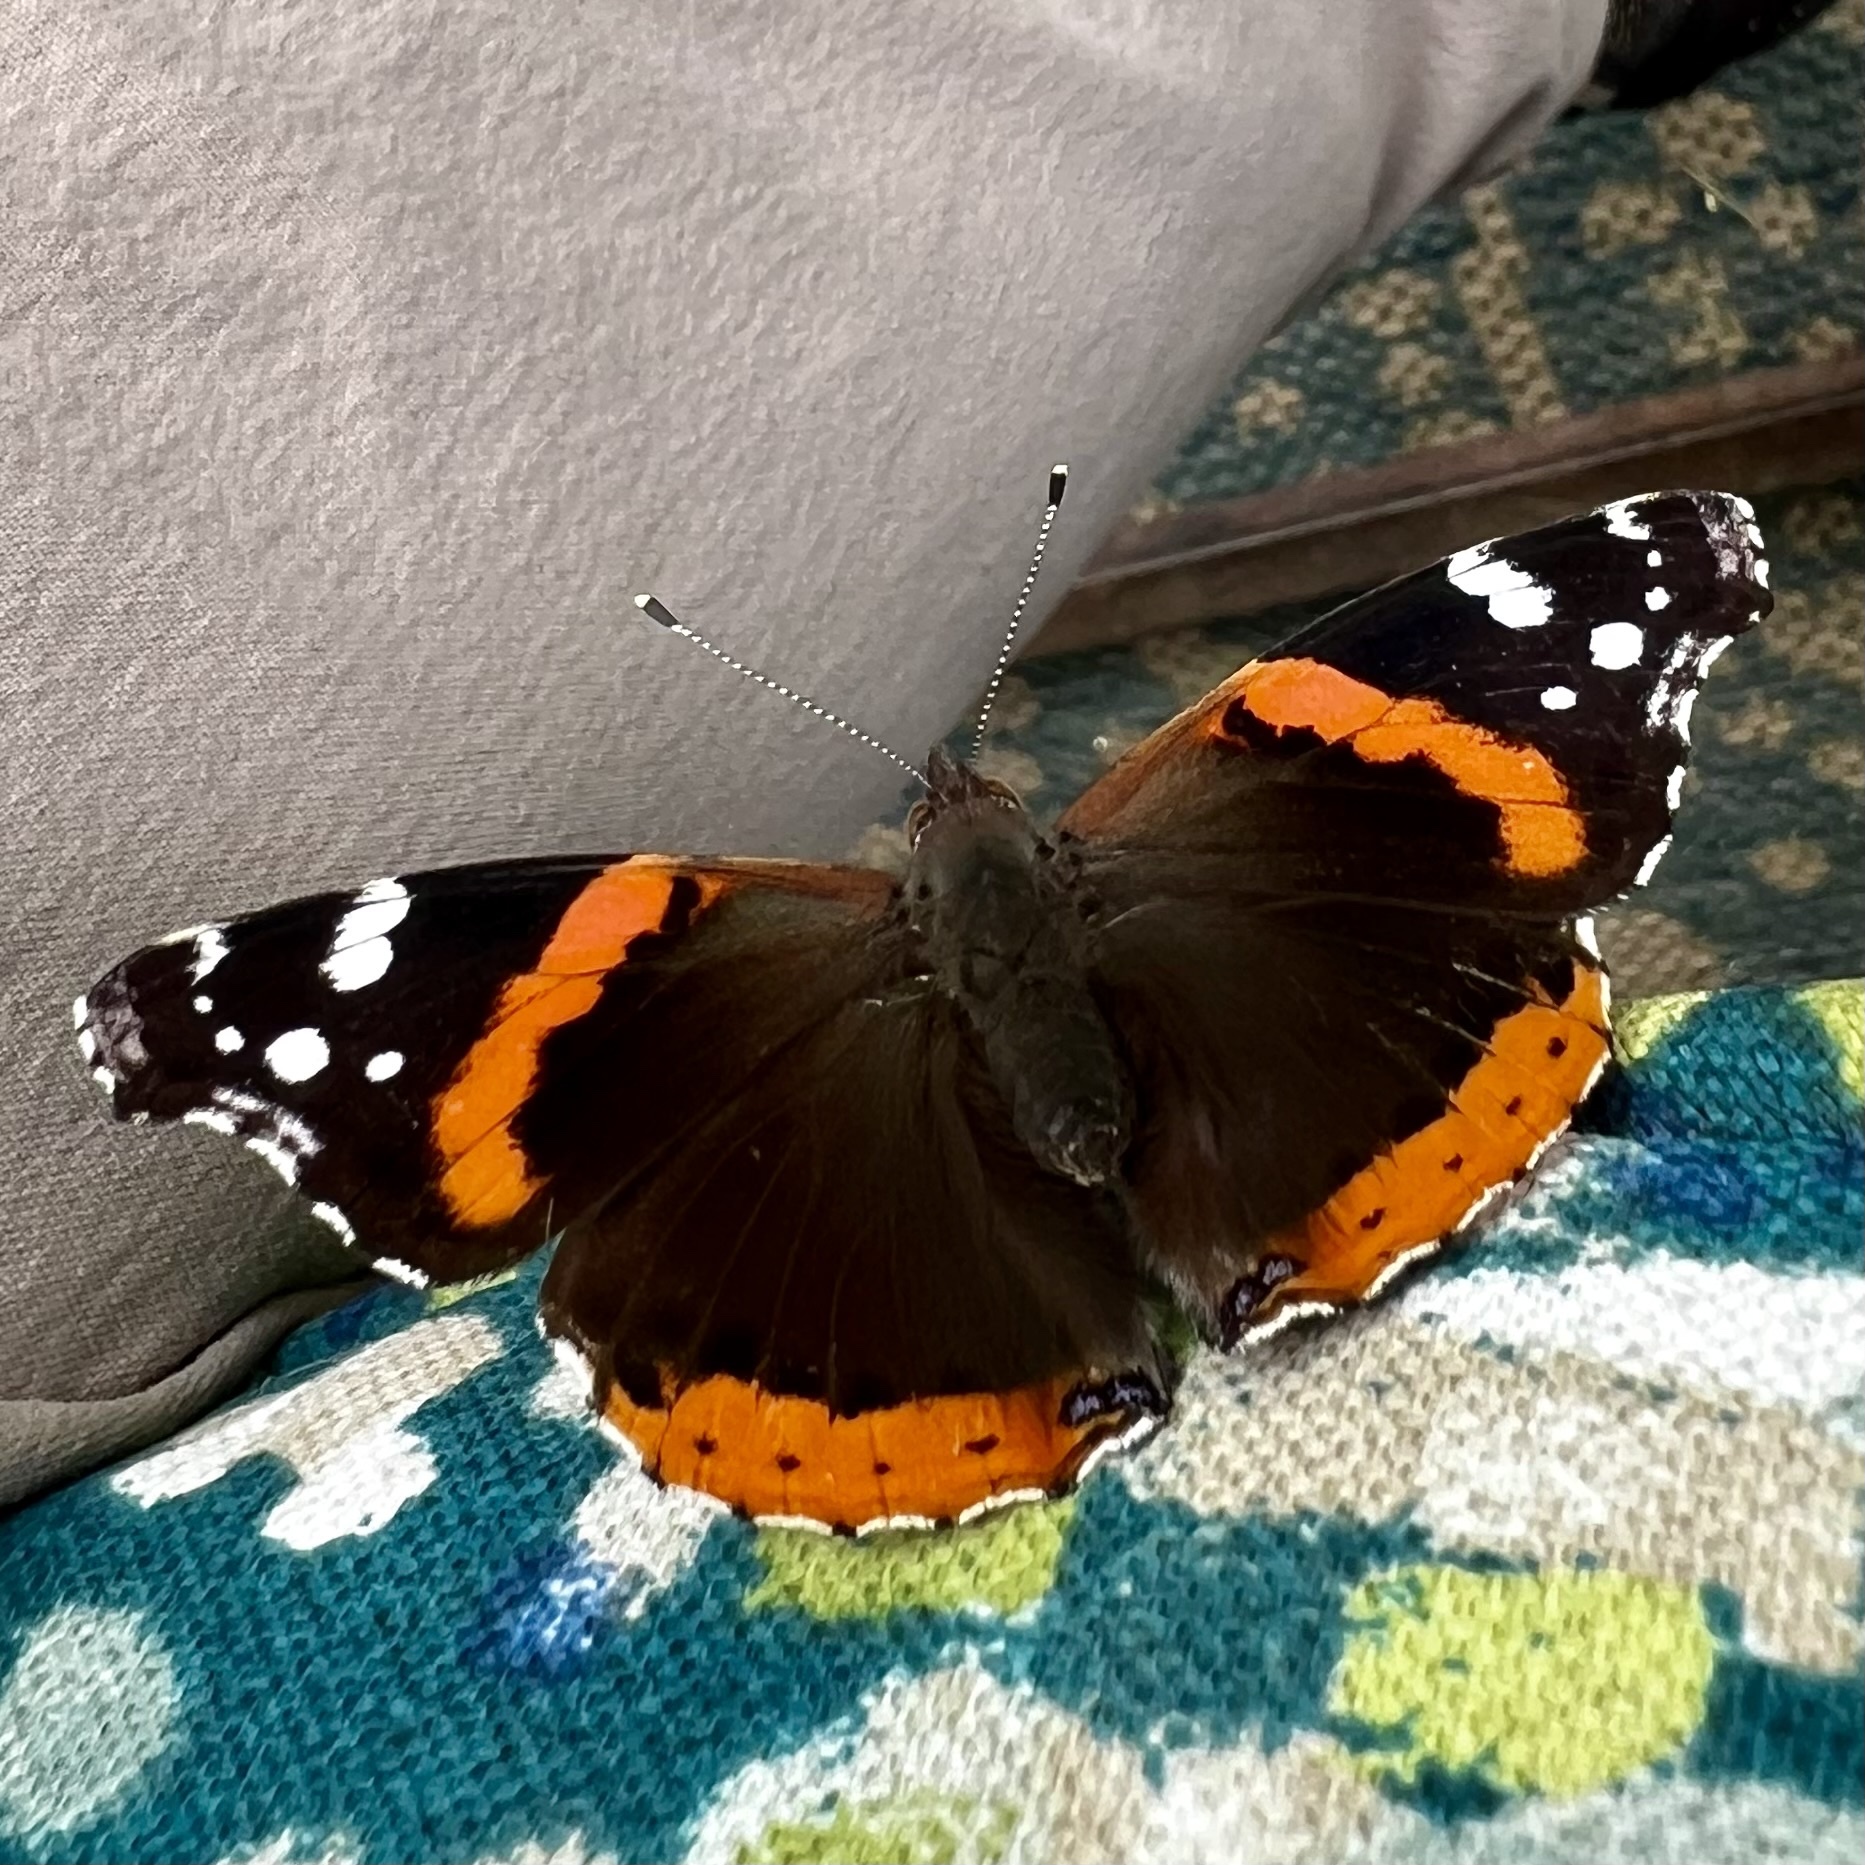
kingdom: Animalia
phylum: Arthropoda
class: Insecta
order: Lepidoptera
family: Nymphalidae
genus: Vanessa
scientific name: Vanessa atalanta
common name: Red admiral
